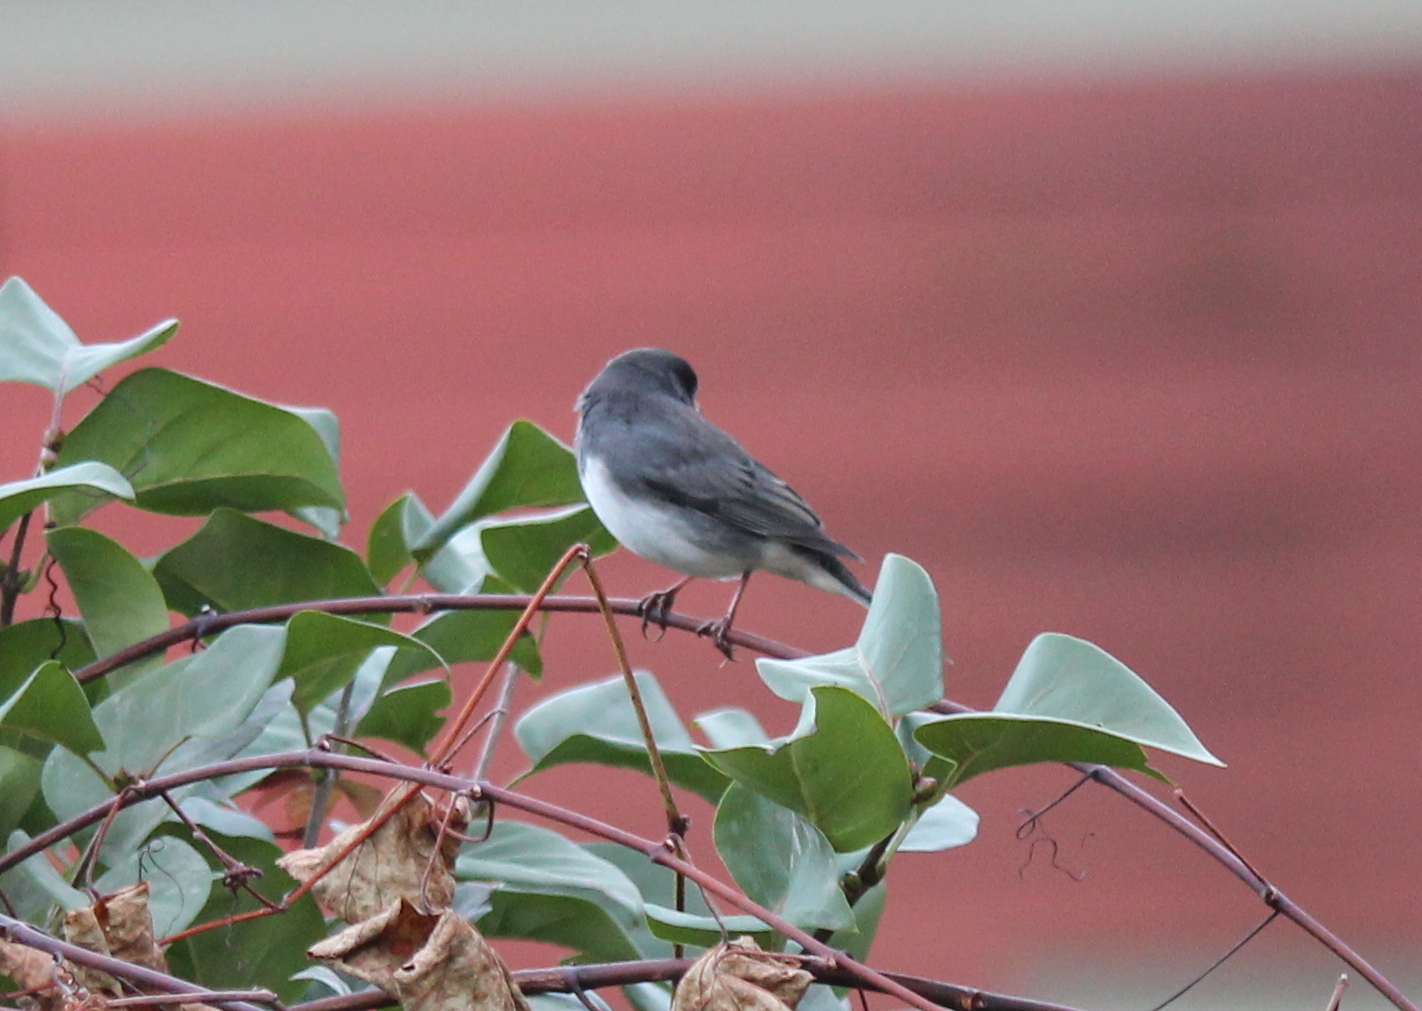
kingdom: Animalia
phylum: Chordata
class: Aves
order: Passeriformes
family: Passerellidae
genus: Junco
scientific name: Junco hyemalis
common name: Dark-eyed junco
